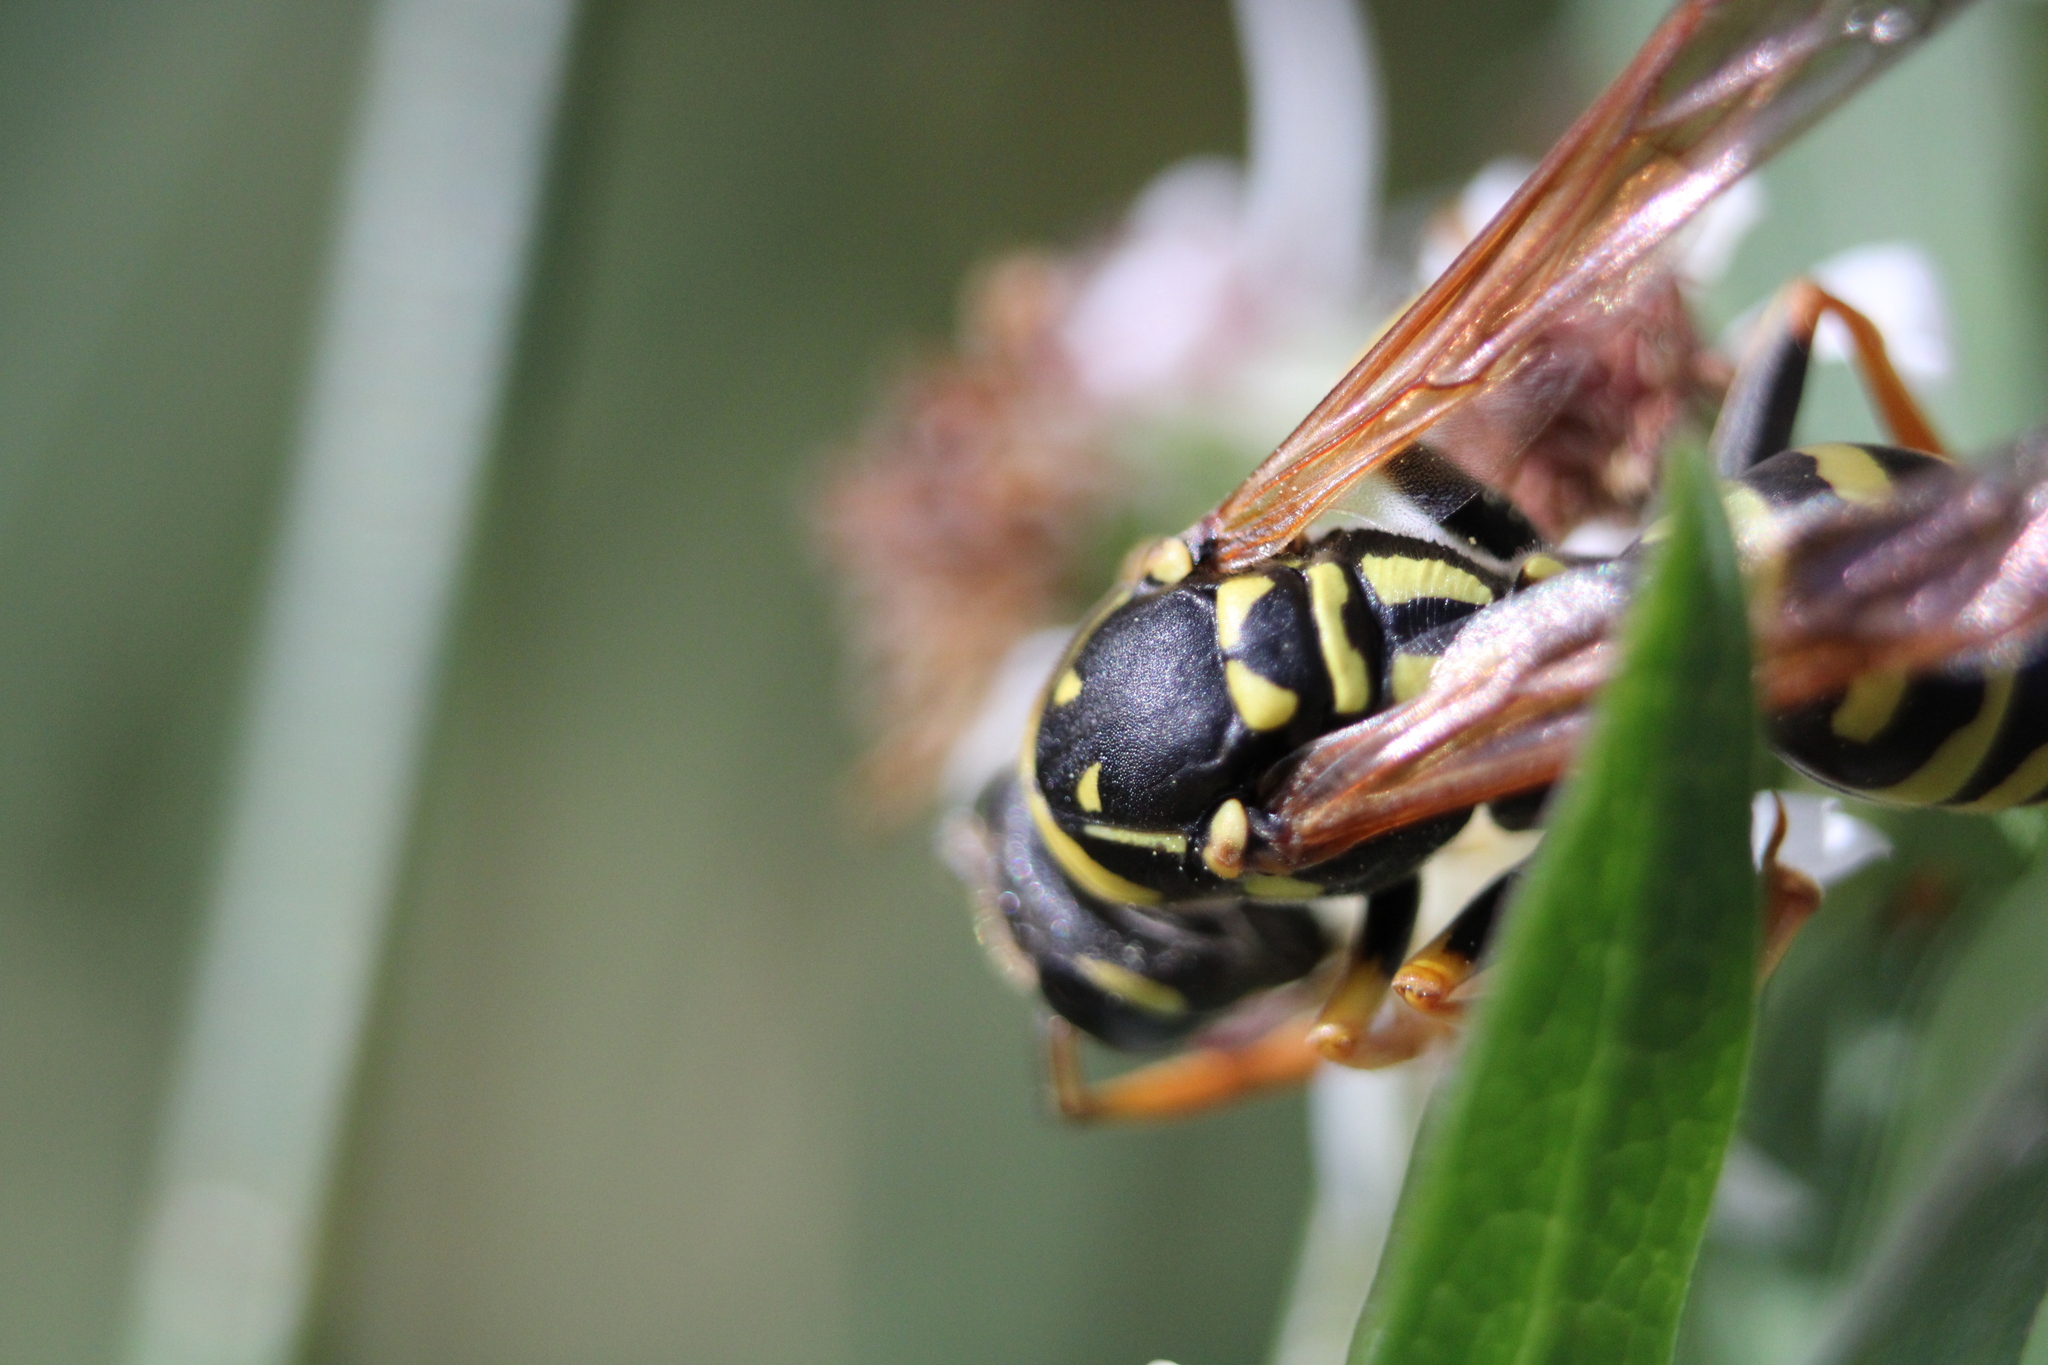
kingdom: Animalia
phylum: Arthropoda
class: Insecta
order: Hymenoptera
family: Eumenidae
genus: Polistes
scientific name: Polistes dominula
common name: Paper wasp
